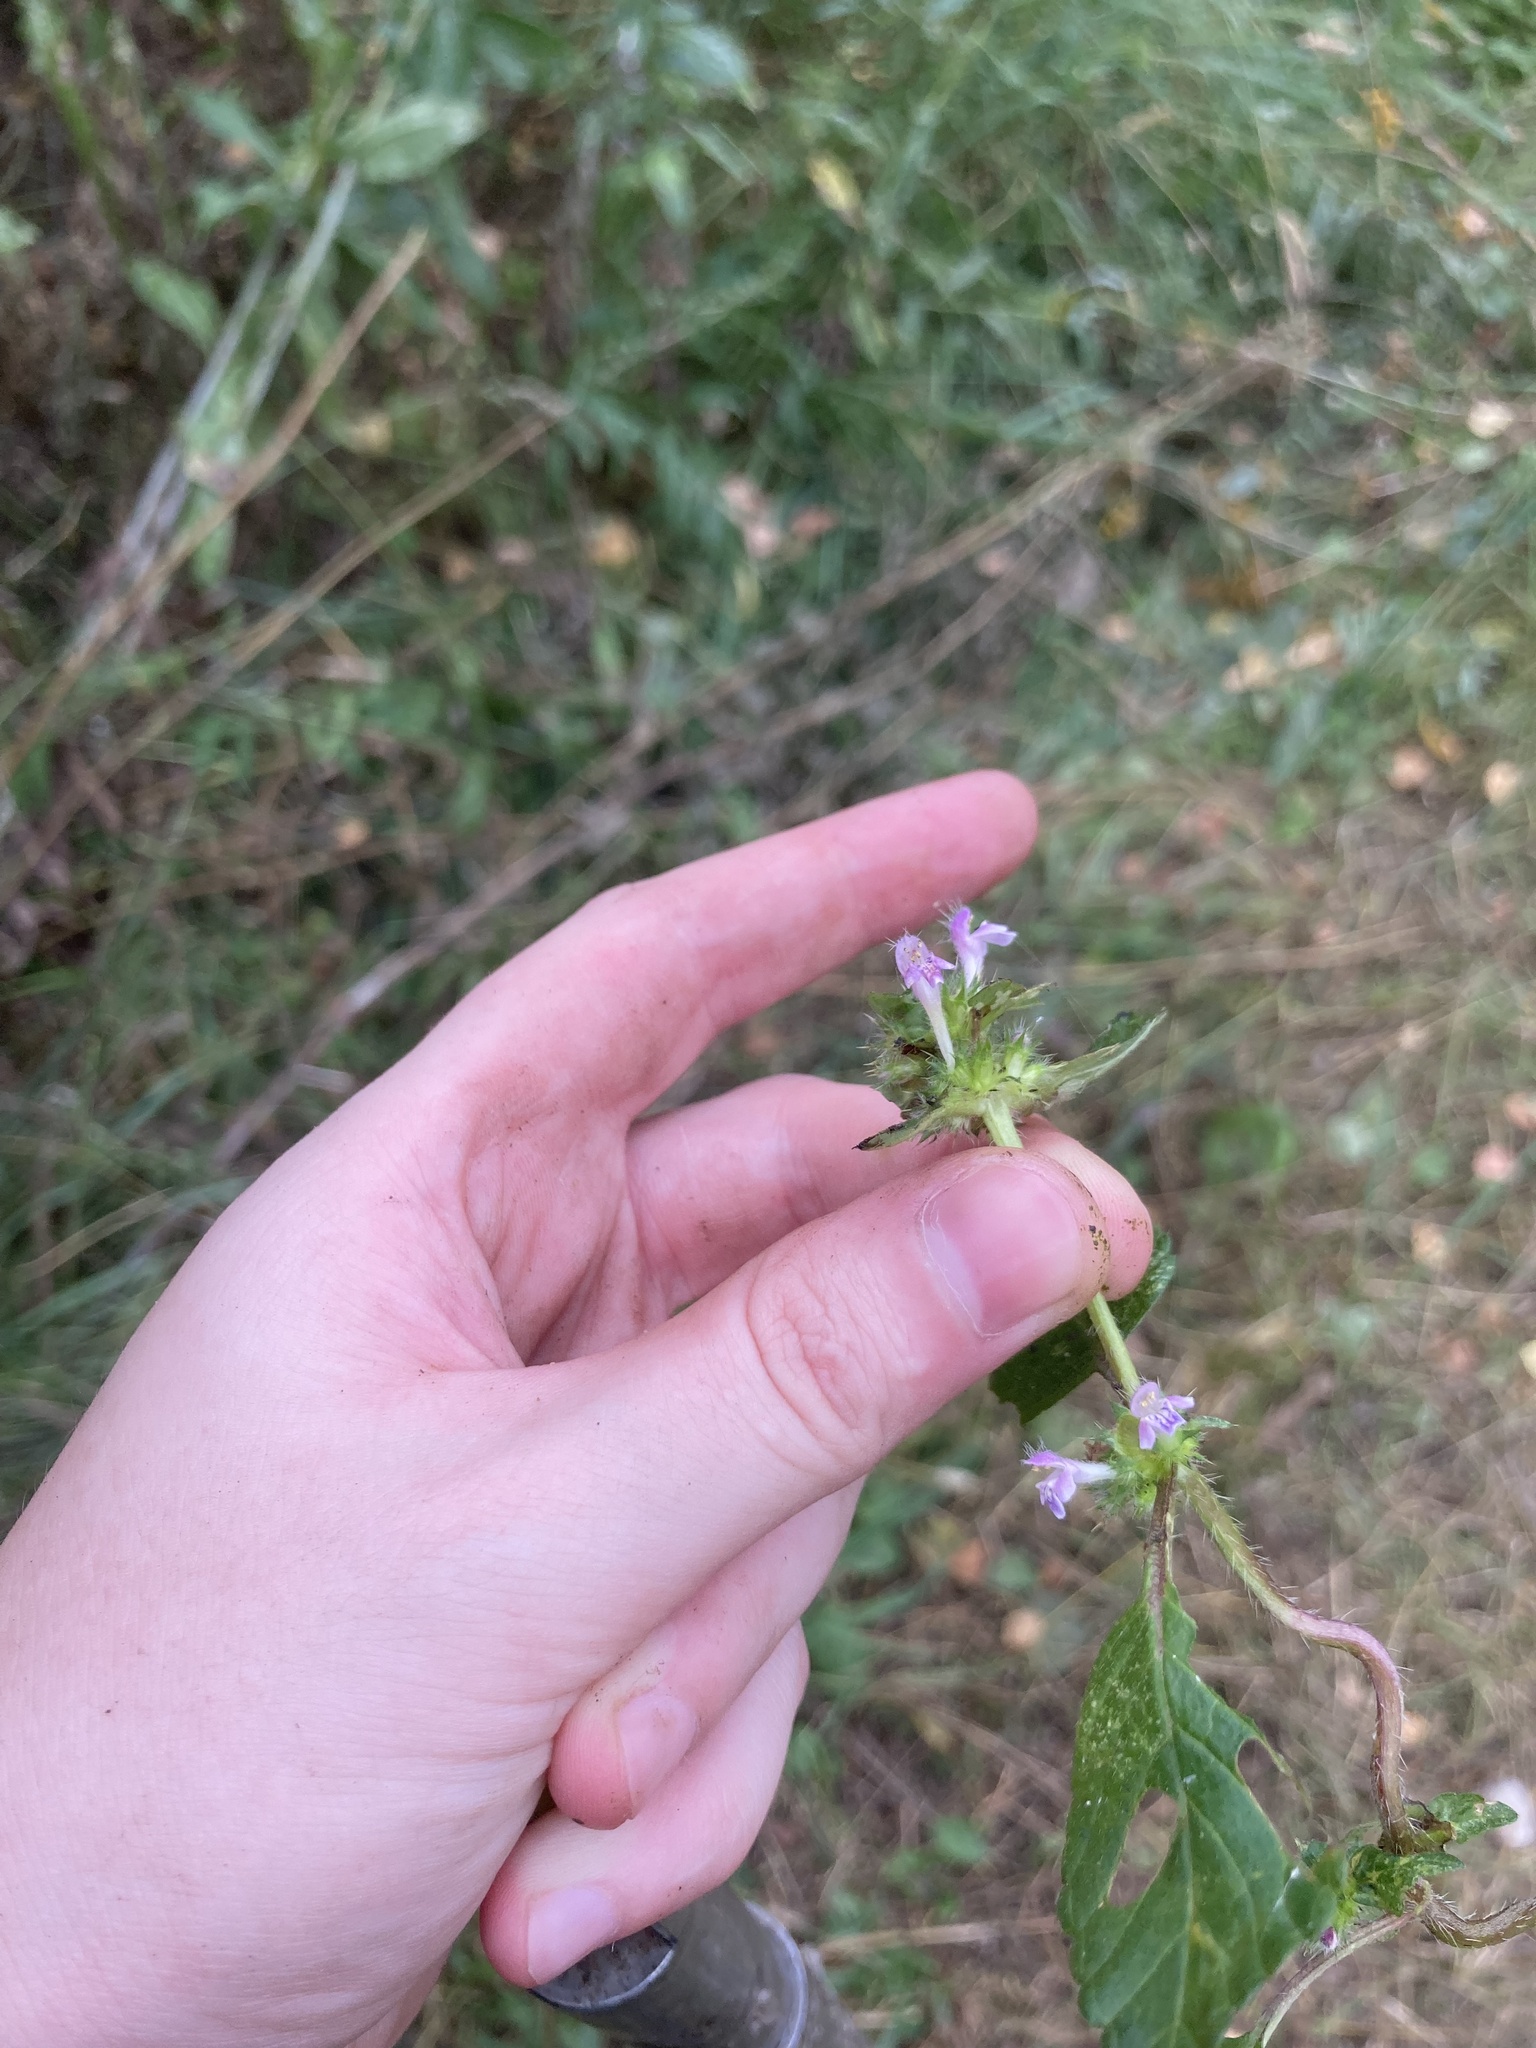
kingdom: Plantae
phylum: Tracheophyta
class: Magnoliopsida
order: Lamiales
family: Lamiaceae
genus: Galeopsis
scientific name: Galeopsis bifida
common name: Bifid hemp-nettle
